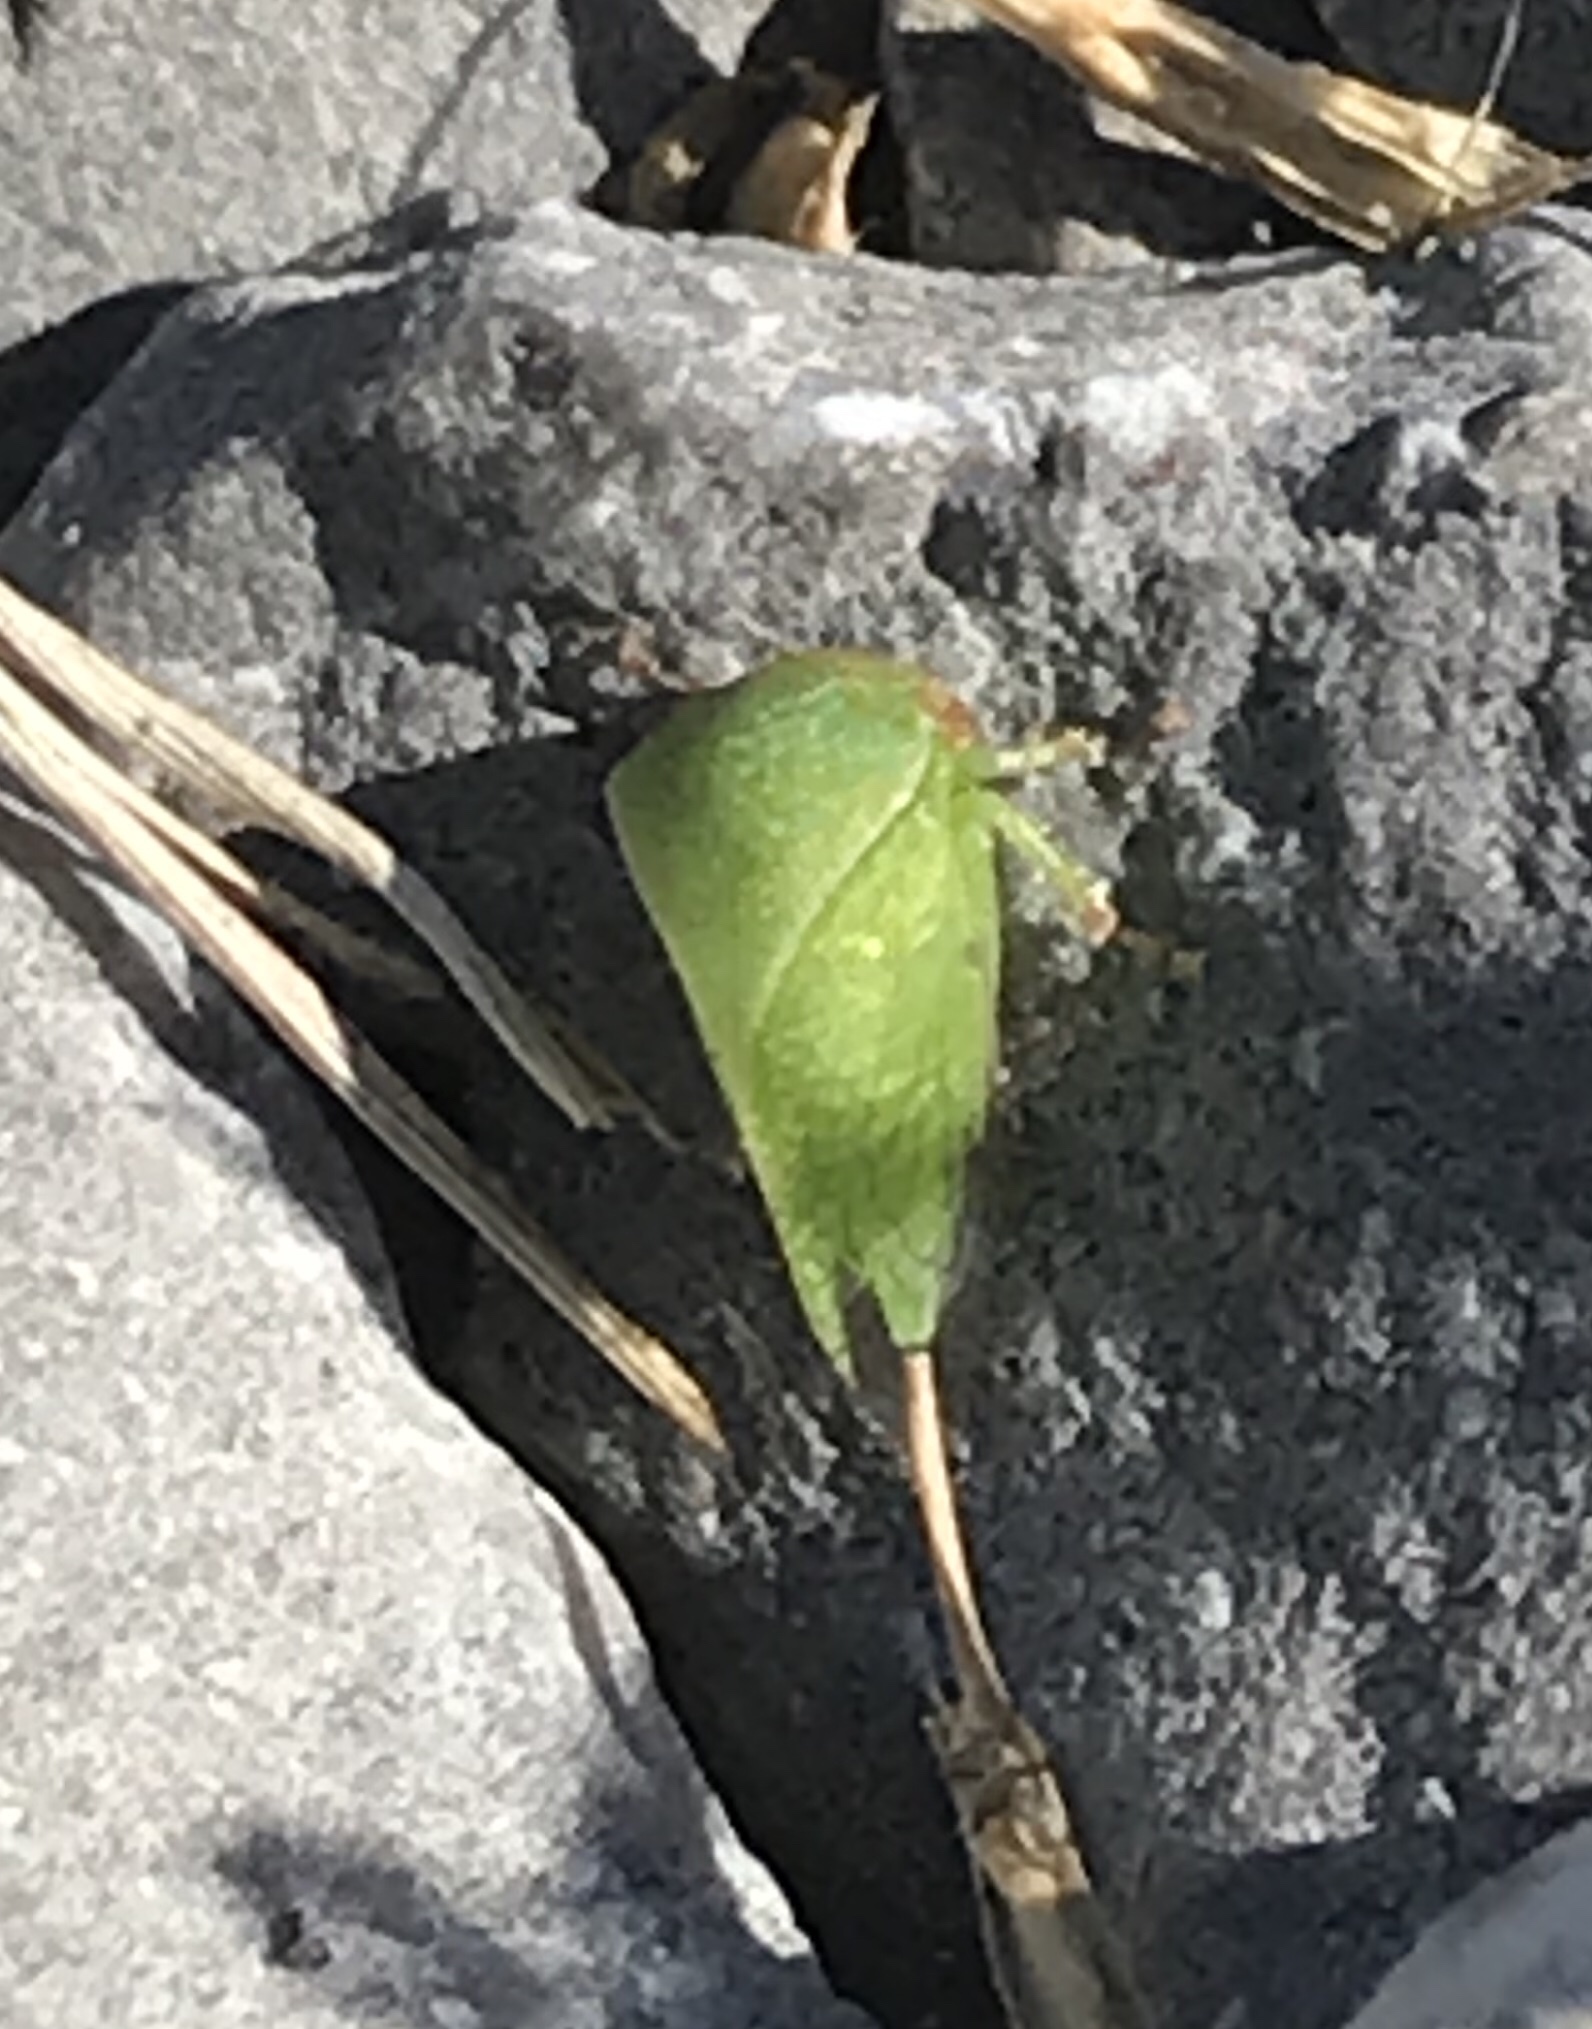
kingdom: Animalia
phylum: Arthropoda
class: Insecta
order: Hemiptera
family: Membracidae
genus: Spissistilus
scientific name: Spissistilus festina
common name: Membracid bug
